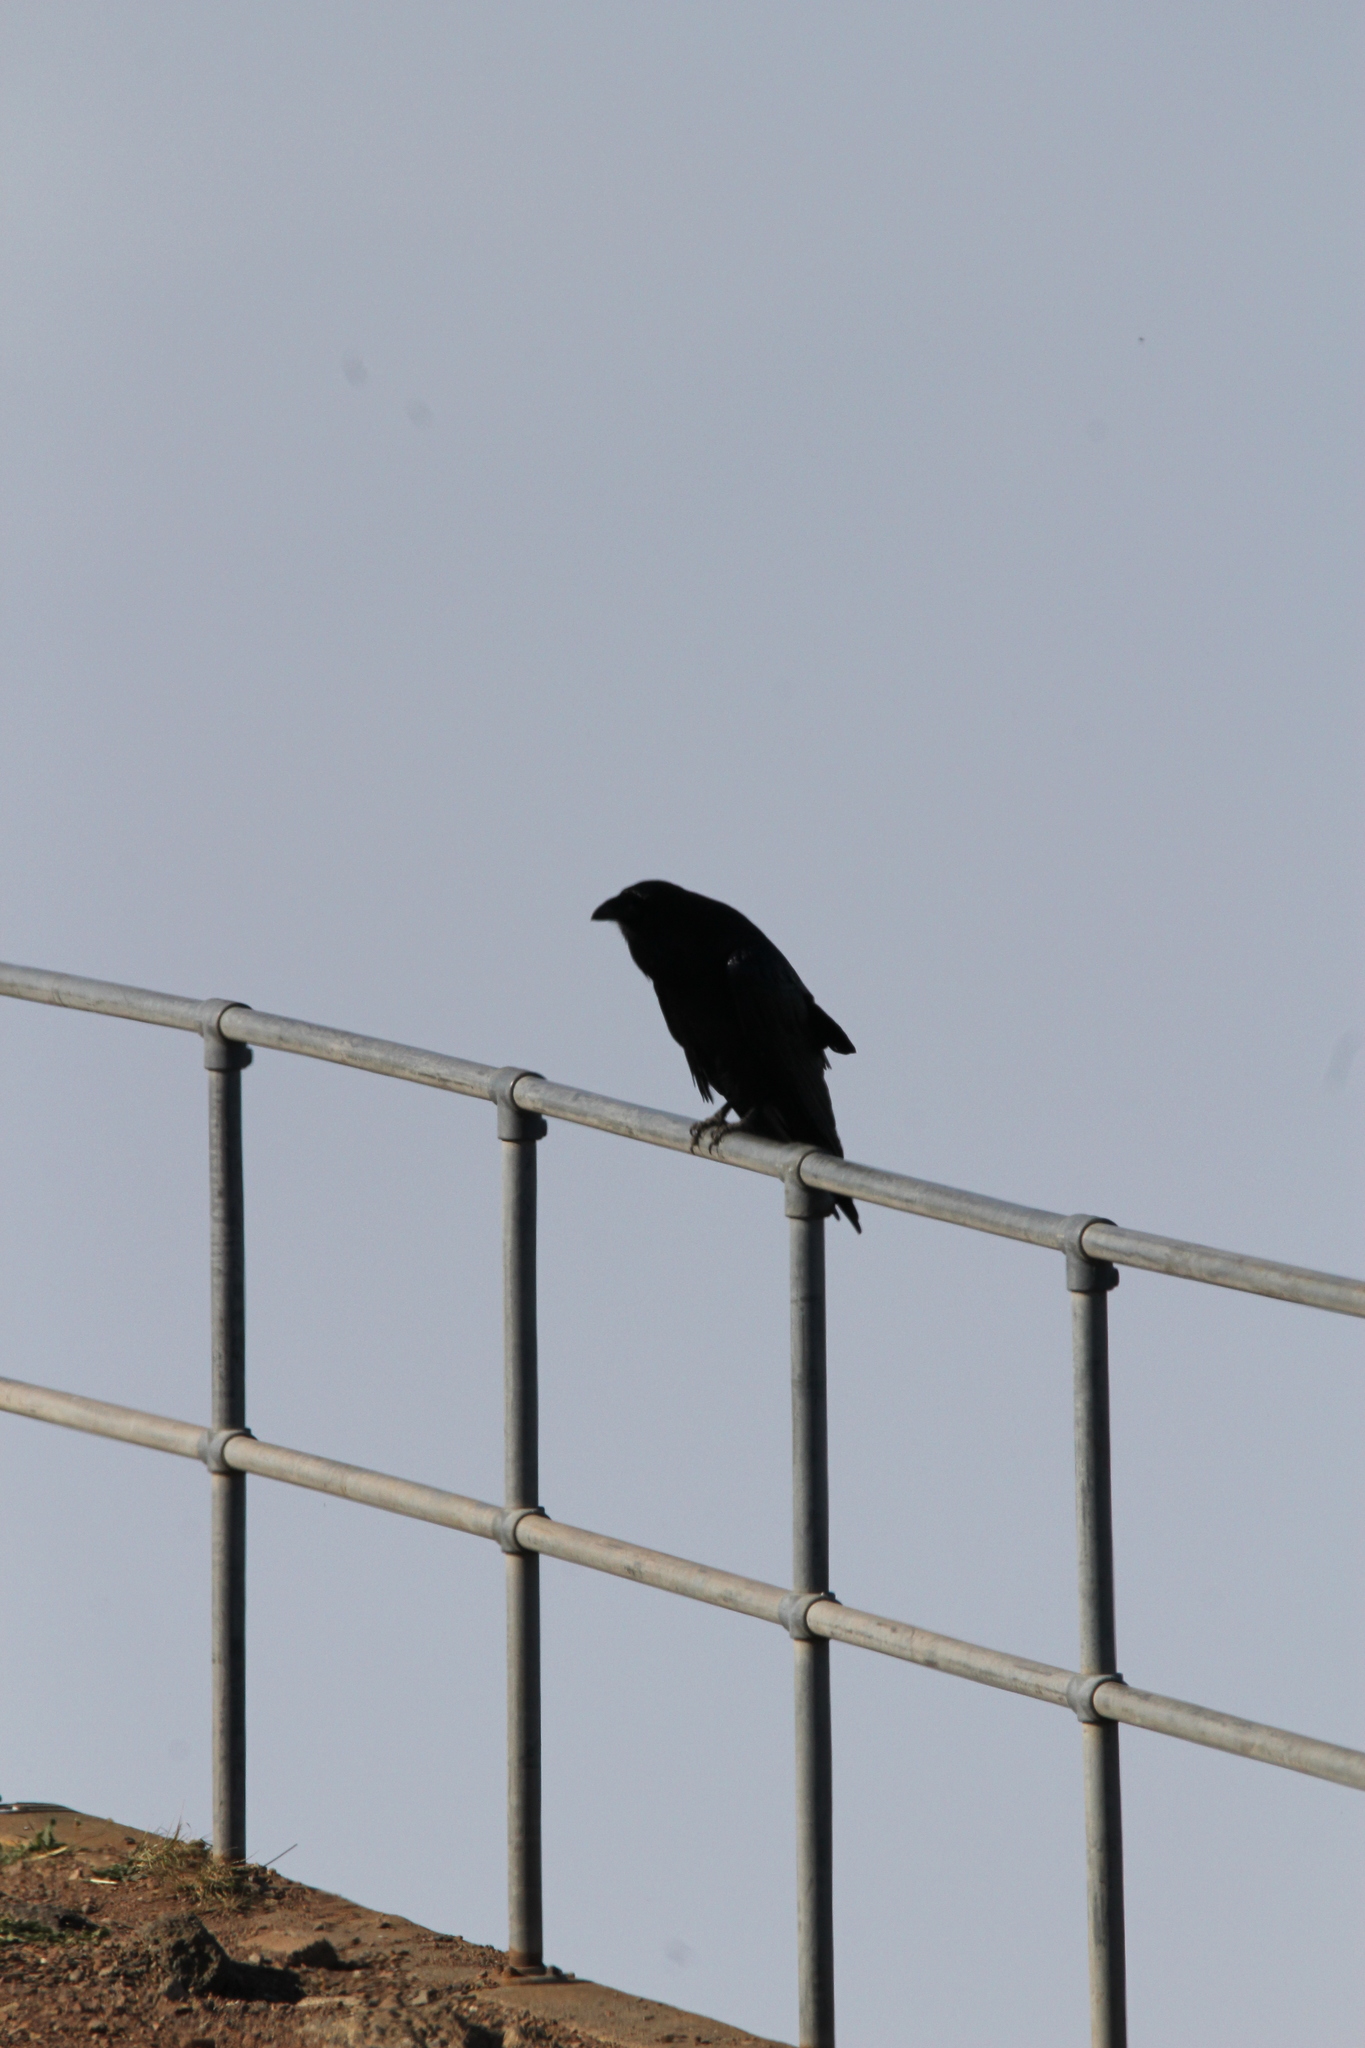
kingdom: Animalia
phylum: Chordata
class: Aves
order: Passeriformes
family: Corvidae
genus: Corvus
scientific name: Corvus corax
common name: Common raven
